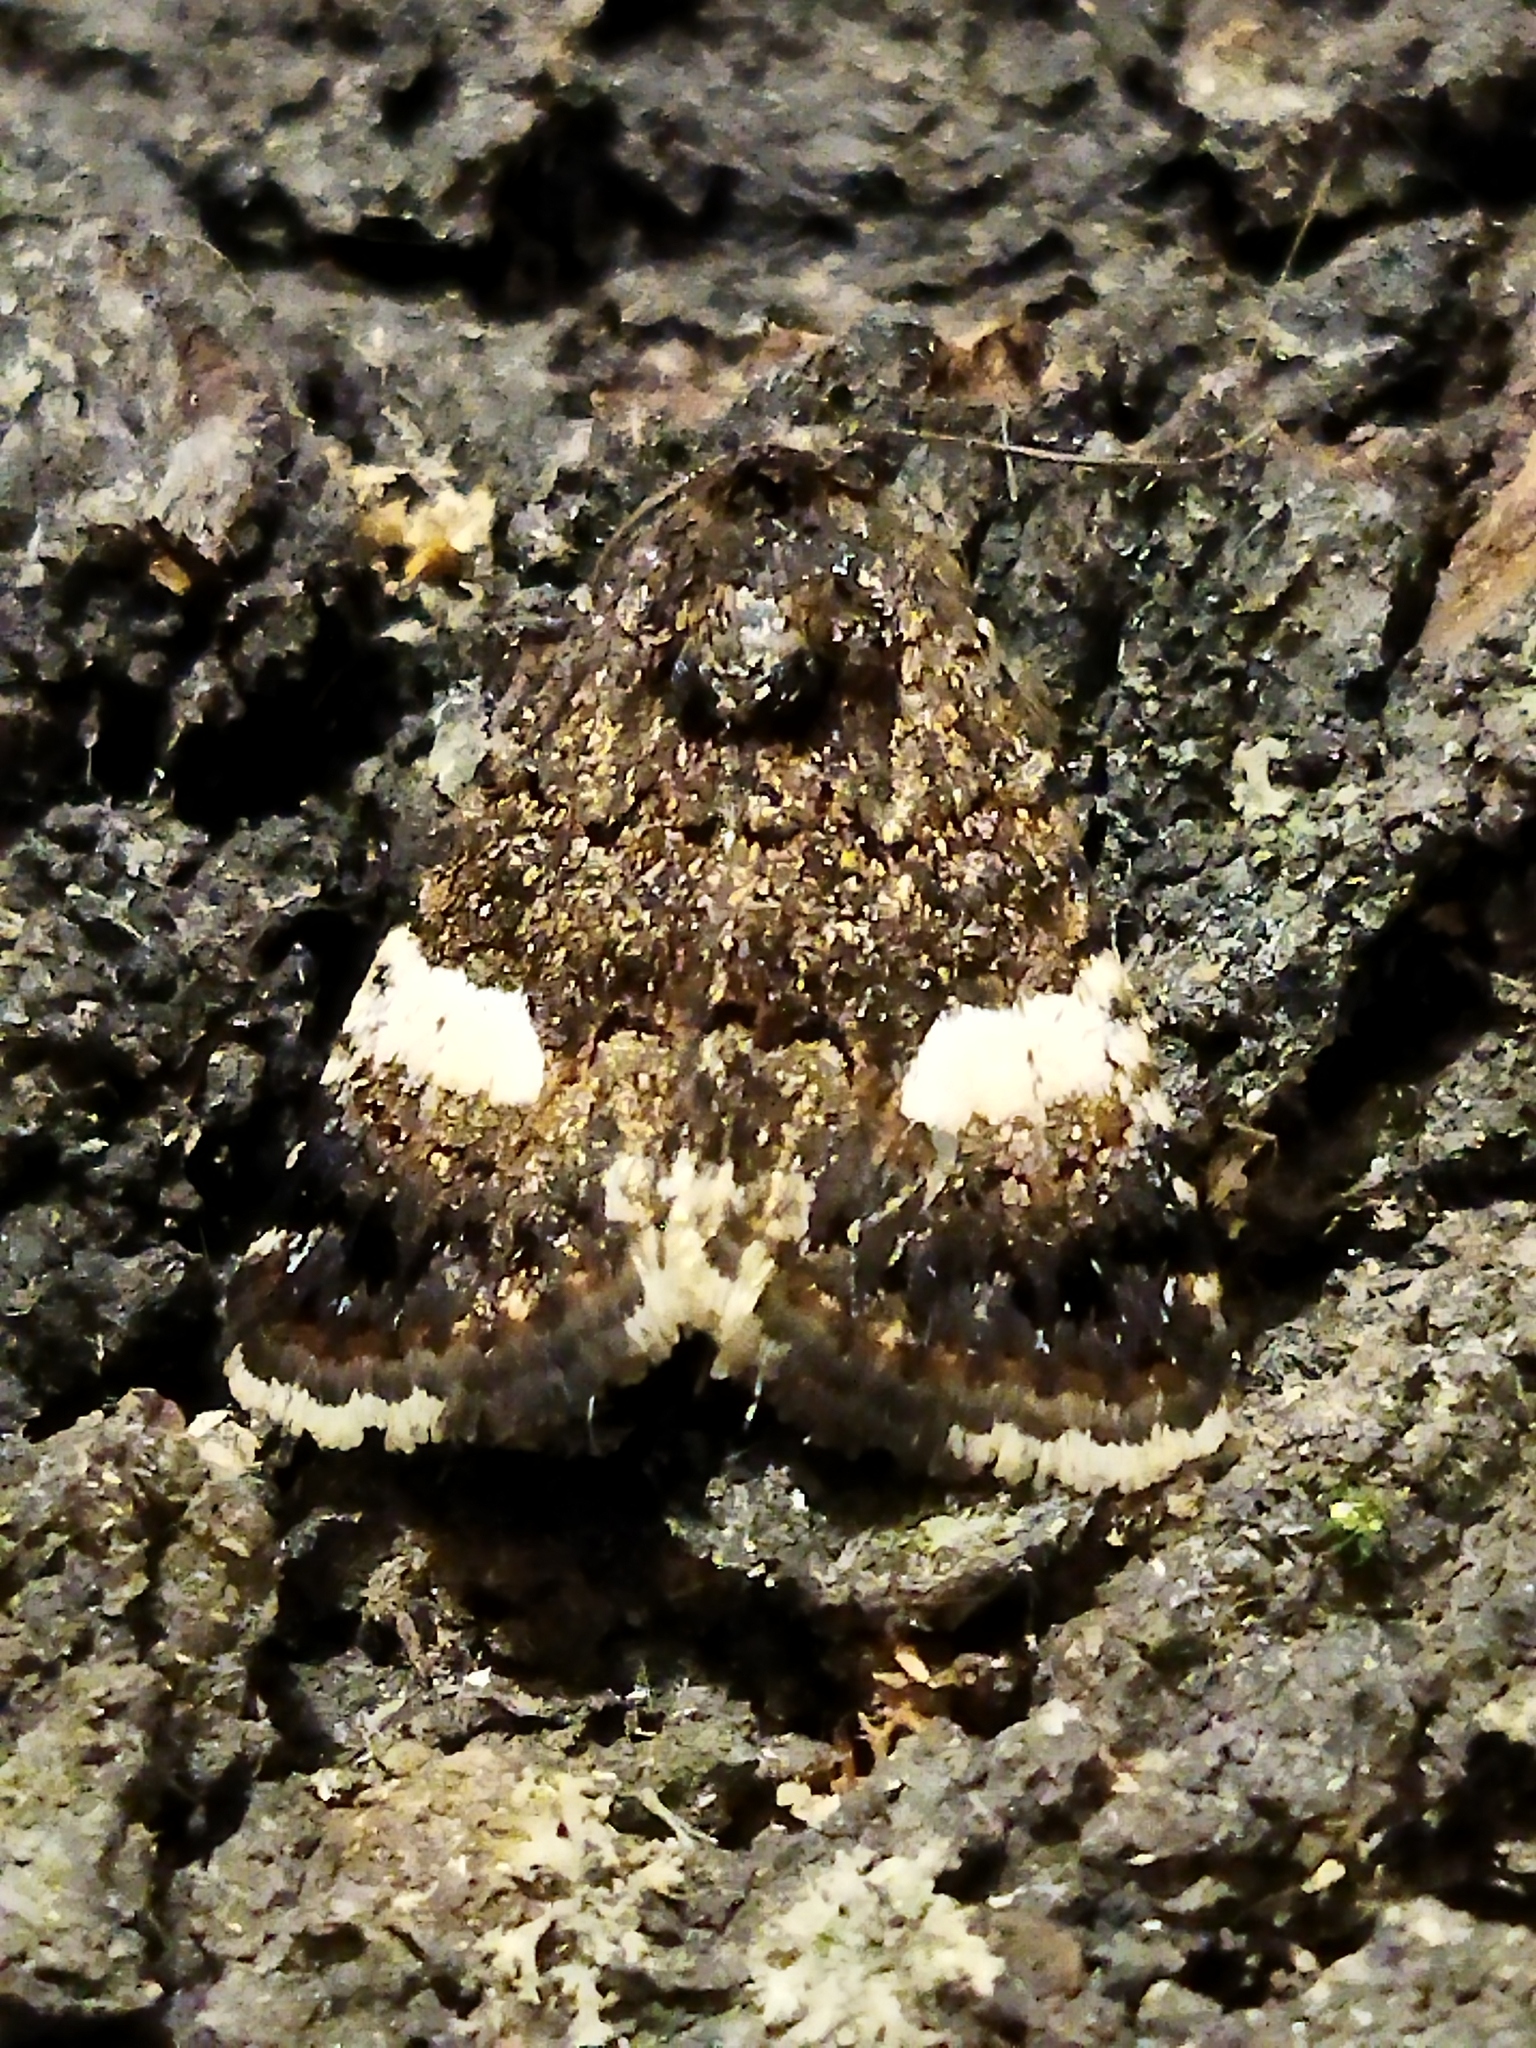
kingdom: Animalia
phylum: Arthropoda
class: Insecta
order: Lepidoptera
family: Erebidae
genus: Tyta
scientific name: Tyta luctuosa
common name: Four-spotted
